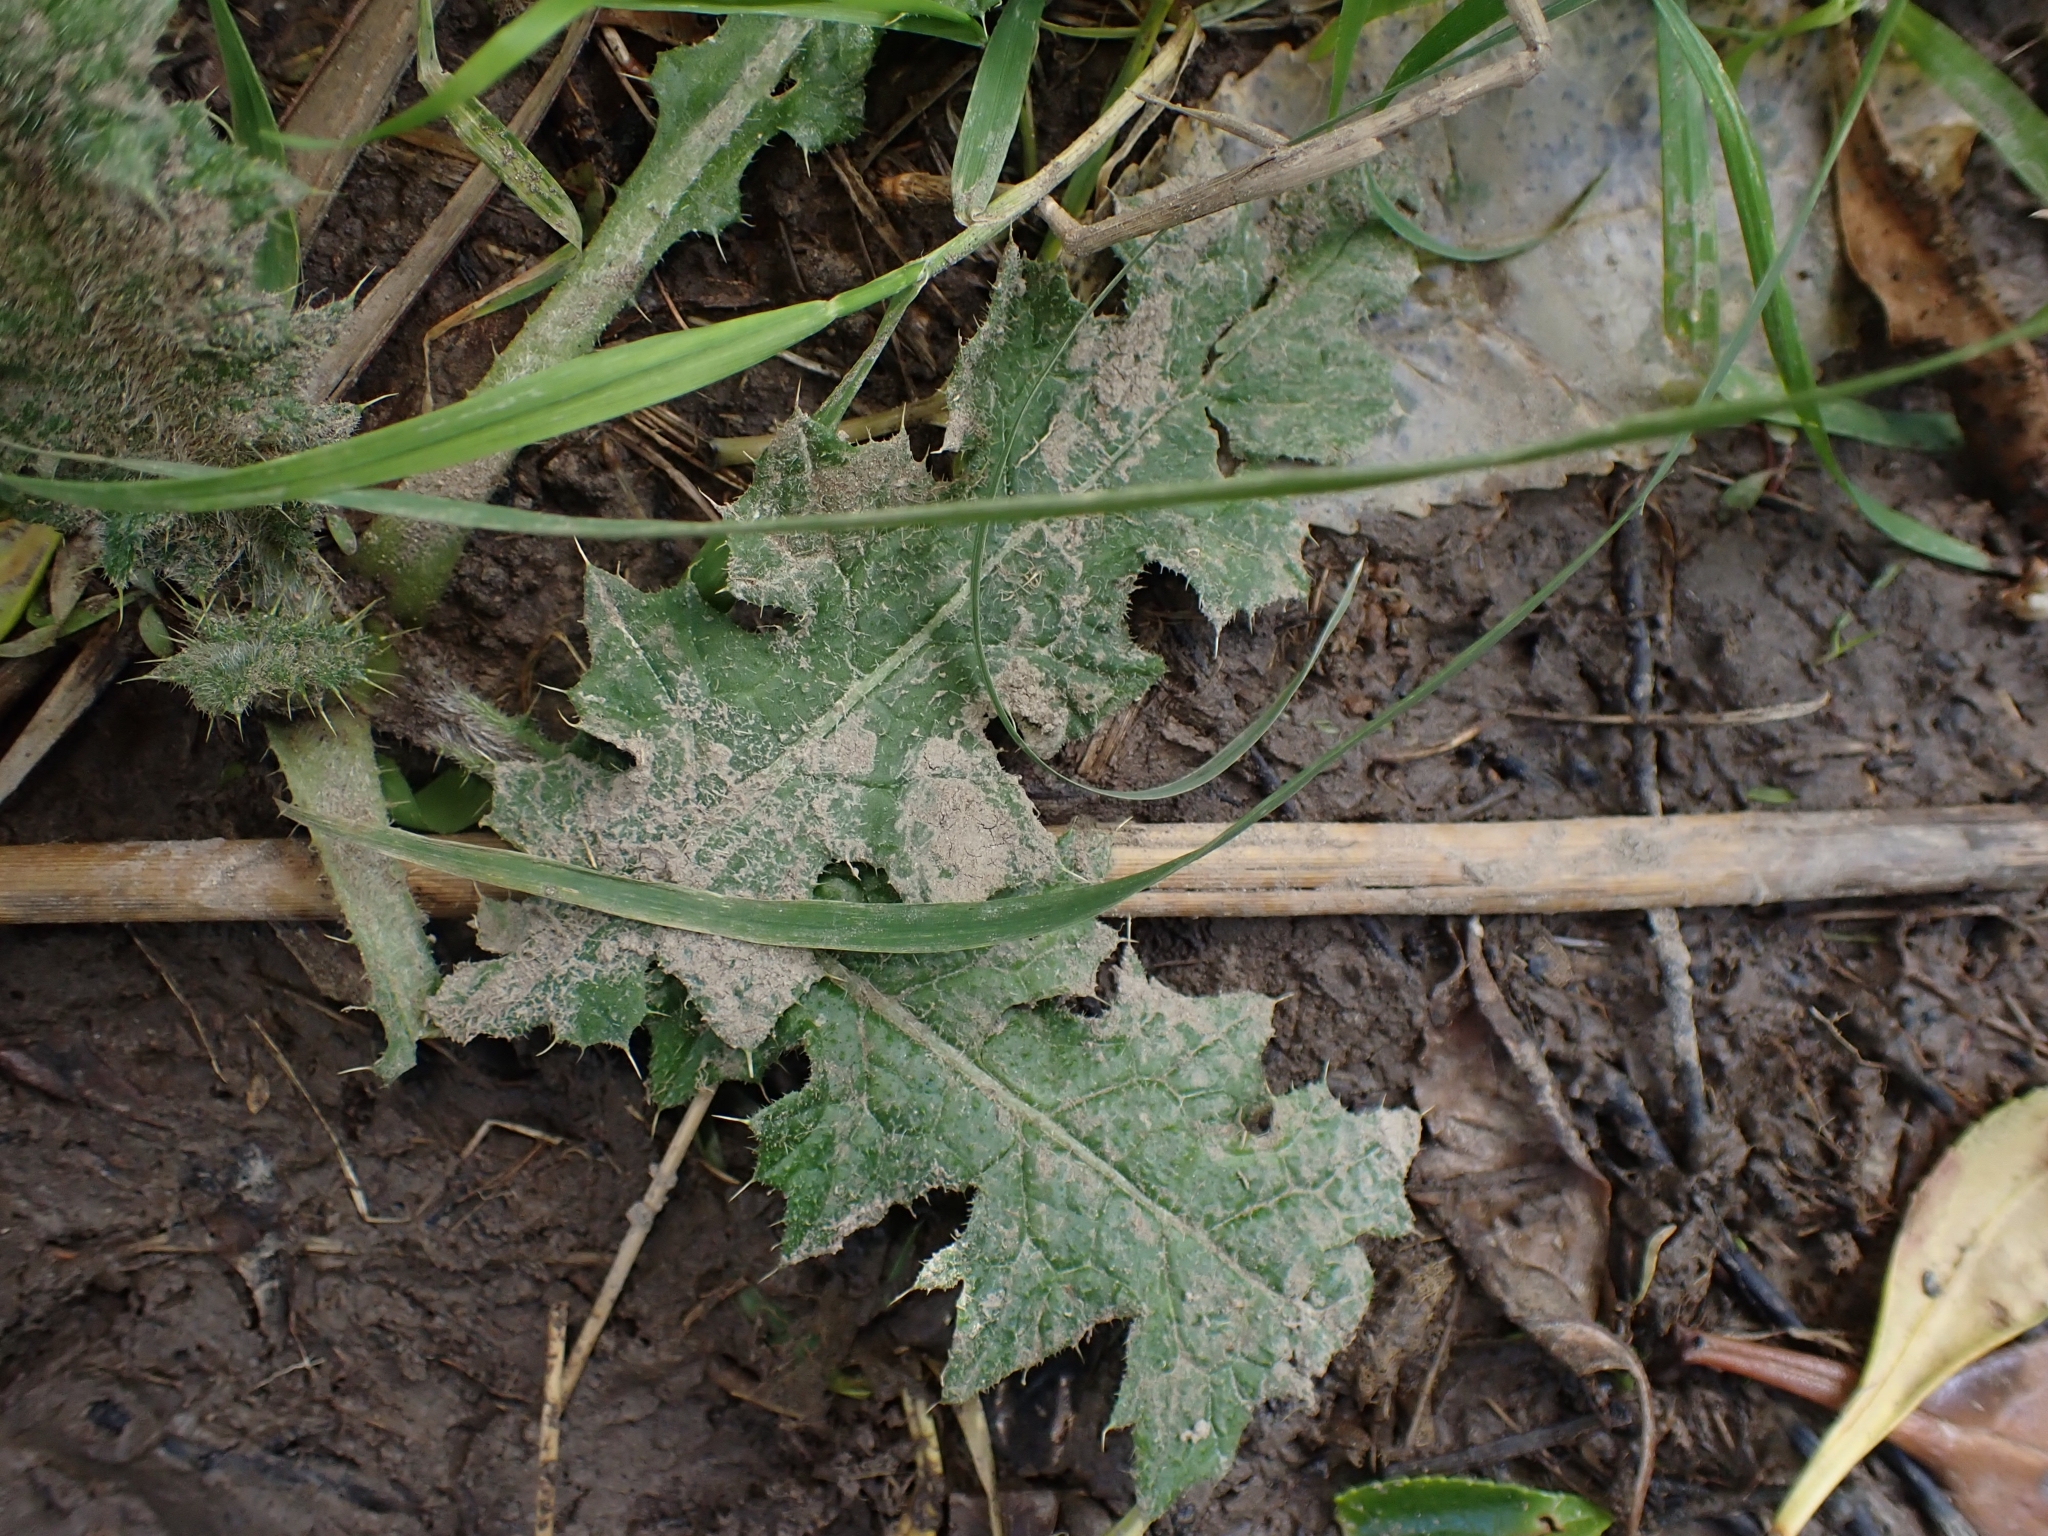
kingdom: Plantae
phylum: Tracheophyta
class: Magnoliopsida
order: Asterales
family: Asteraceae
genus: Cirsium
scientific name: Cirsium vulgare
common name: Bull thistle
